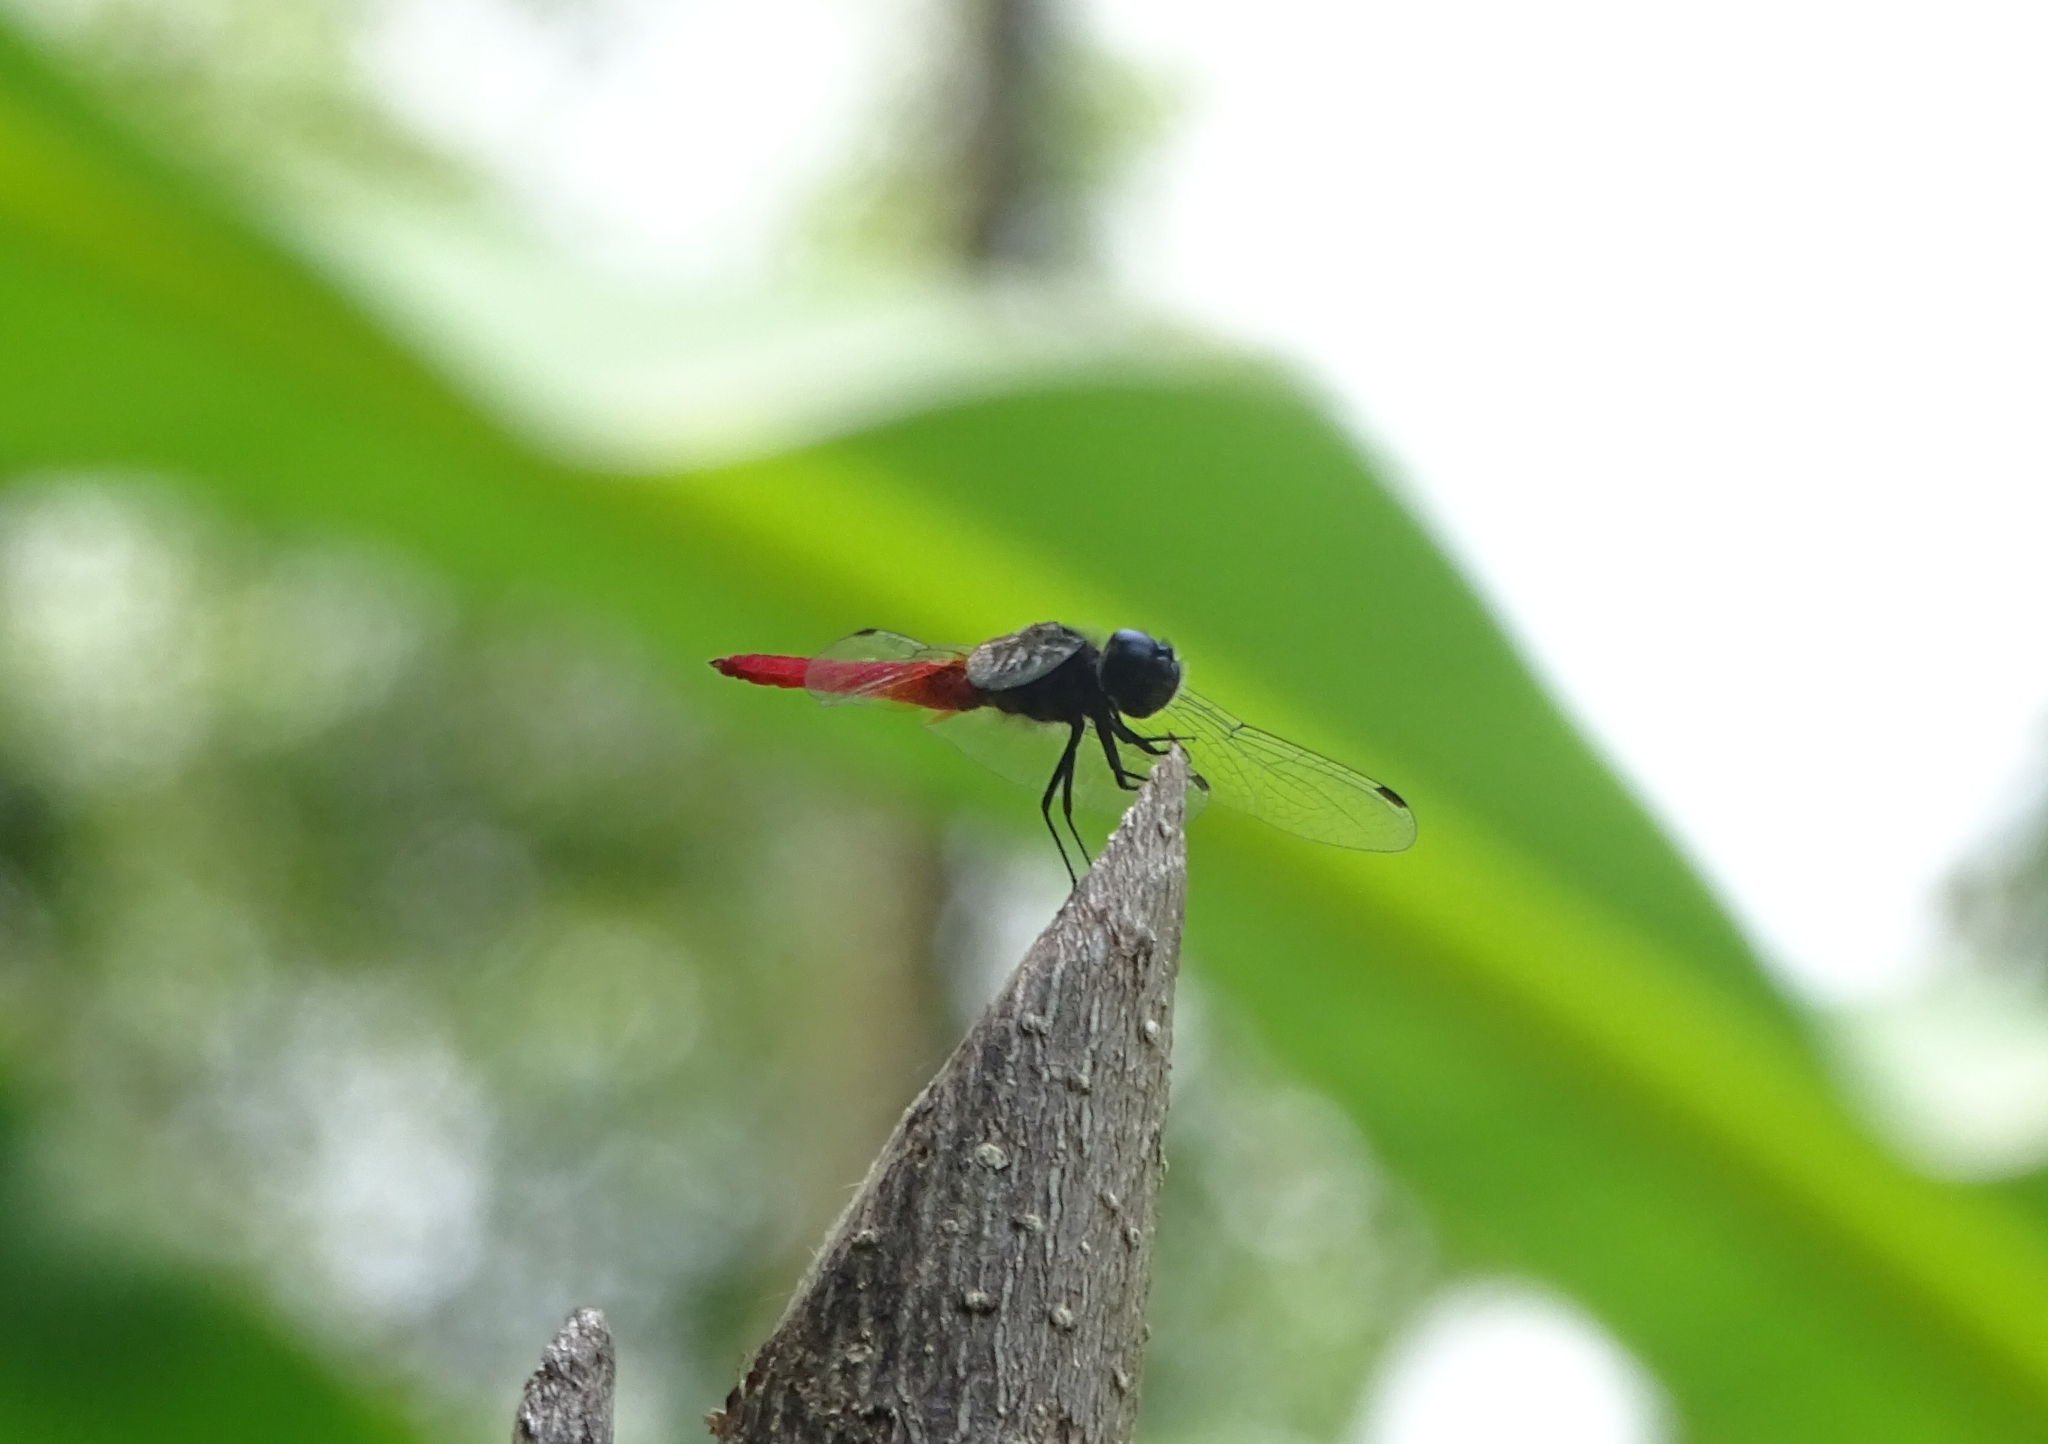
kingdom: Animalia
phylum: Arthropoda
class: Insecta
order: Odonata
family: Libellulidae
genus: Aethriamanta
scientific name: Aethriamanta brevipennis
